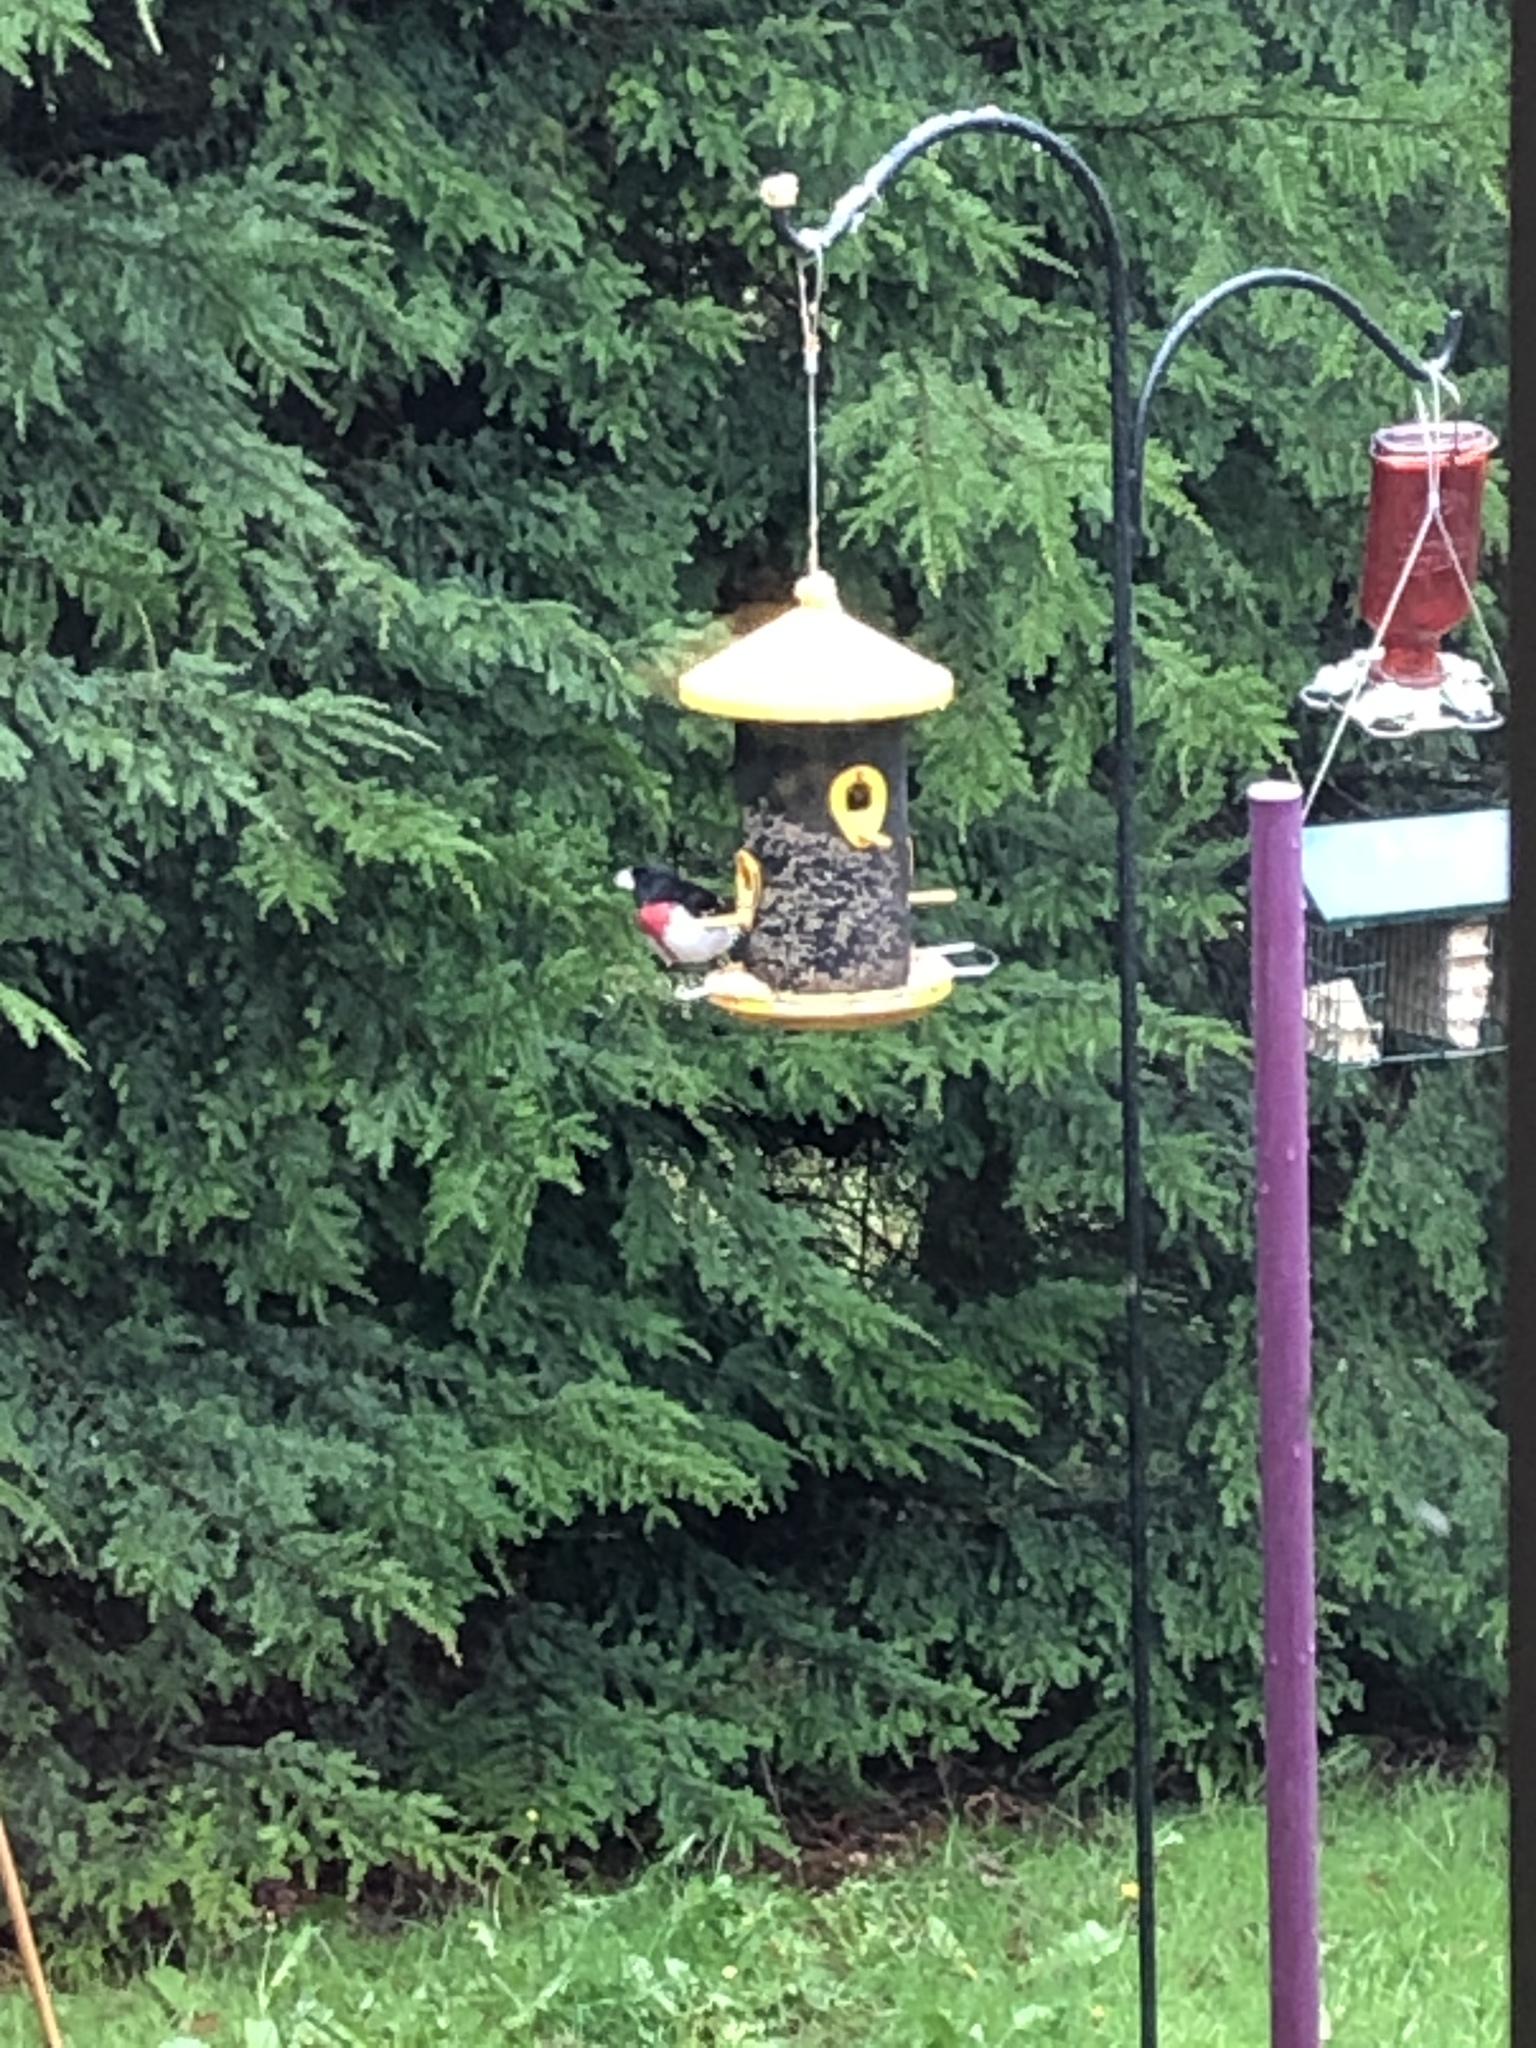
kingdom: Animalia
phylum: Chordata
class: Aves
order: Passeriformes
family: Cardinalidae
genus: Pheucticus
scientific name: Pheucticus ludovicianus
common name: Rose-breasted grosbeak
